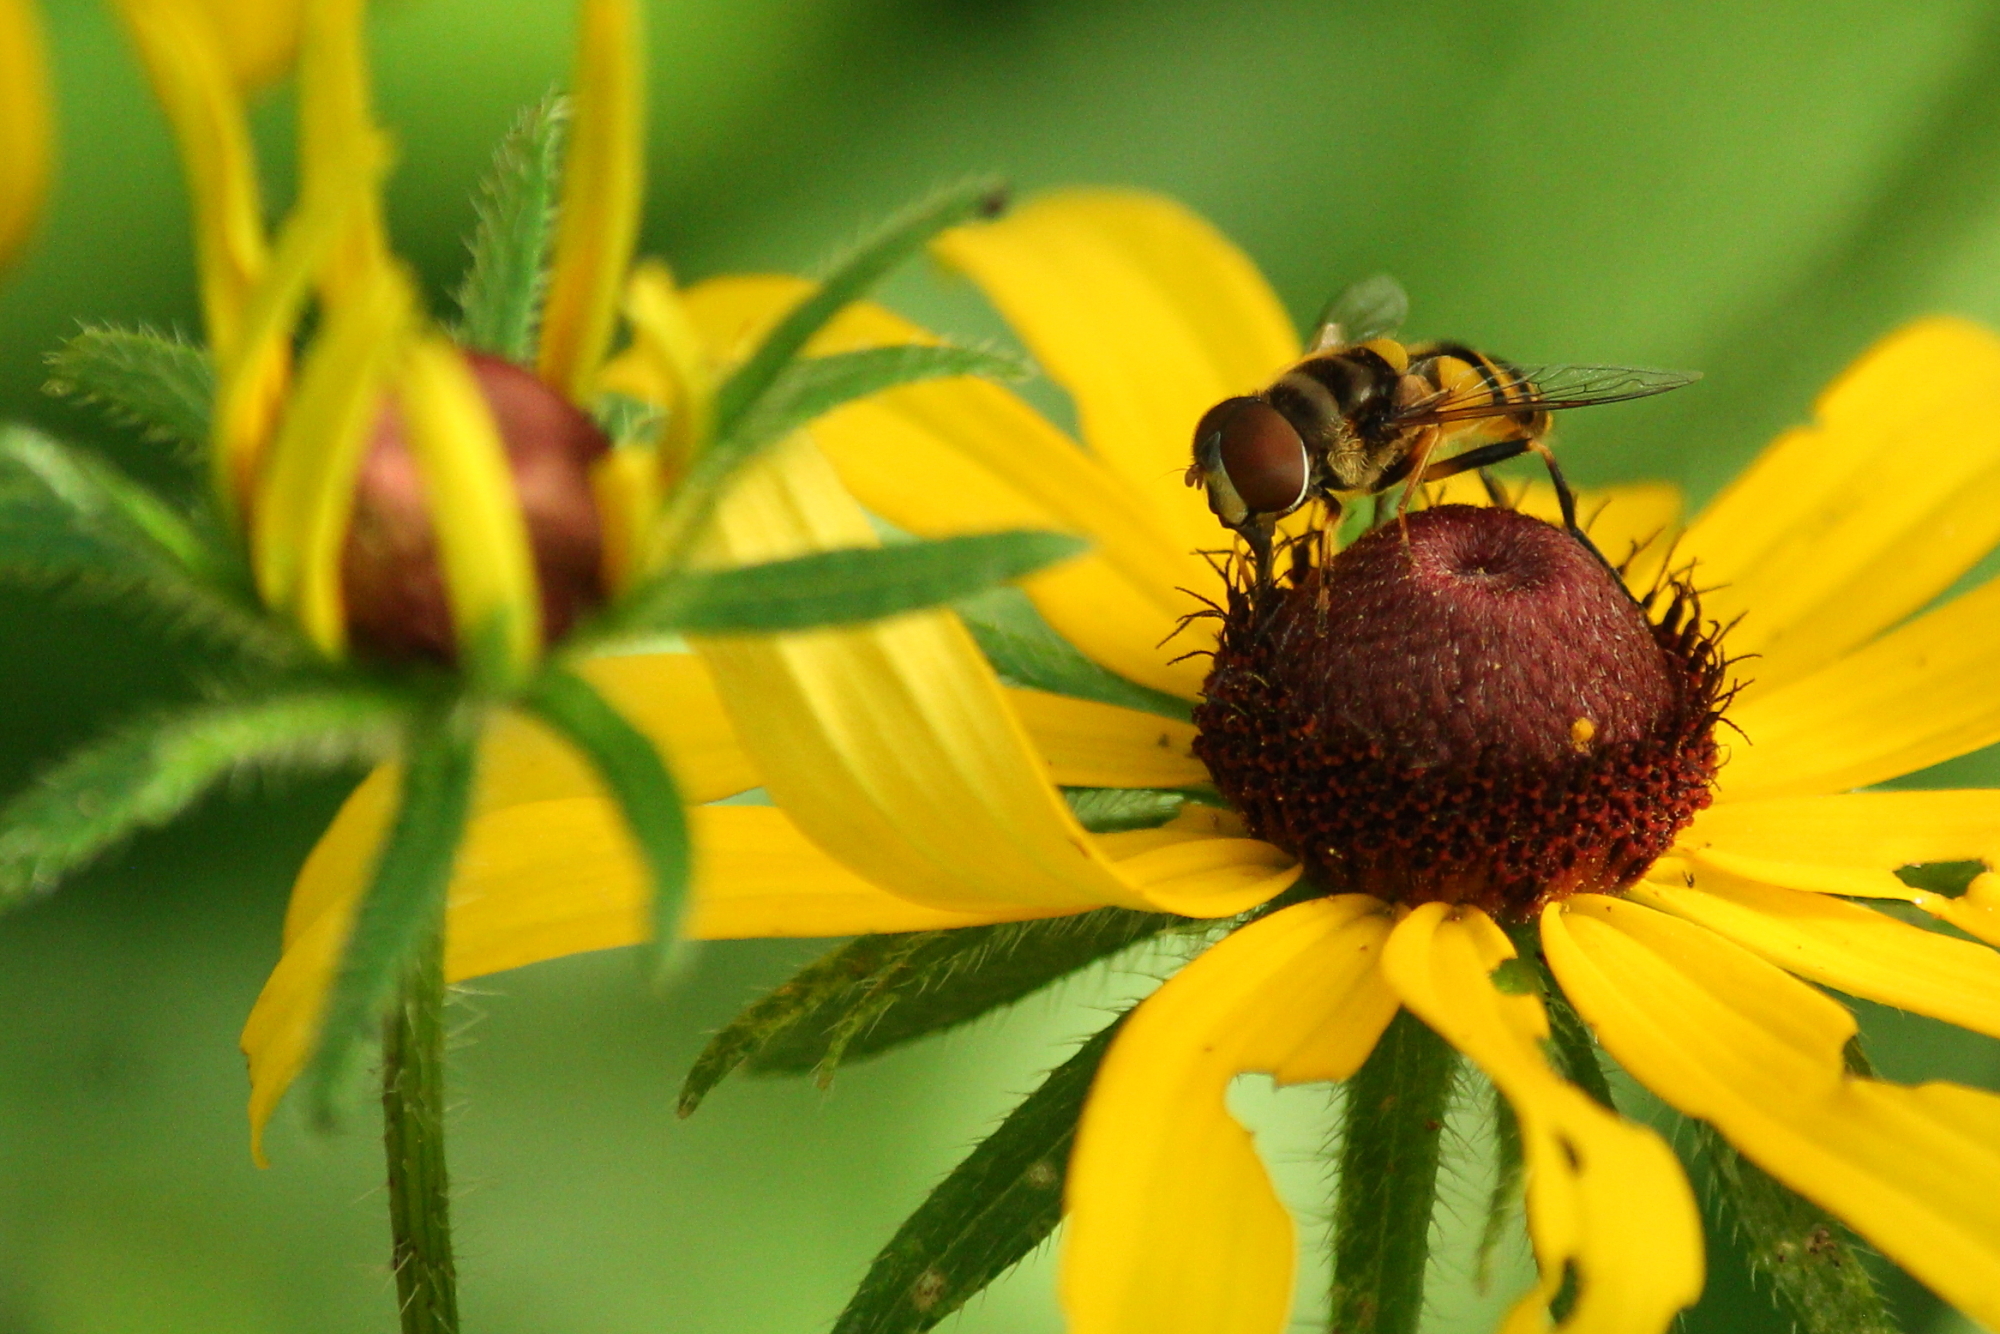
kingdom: Animalia
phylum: Arthropoda
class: Insecta
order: Diptera
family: Syrphidae
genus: Eristalis
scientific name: Eristalis transversa
